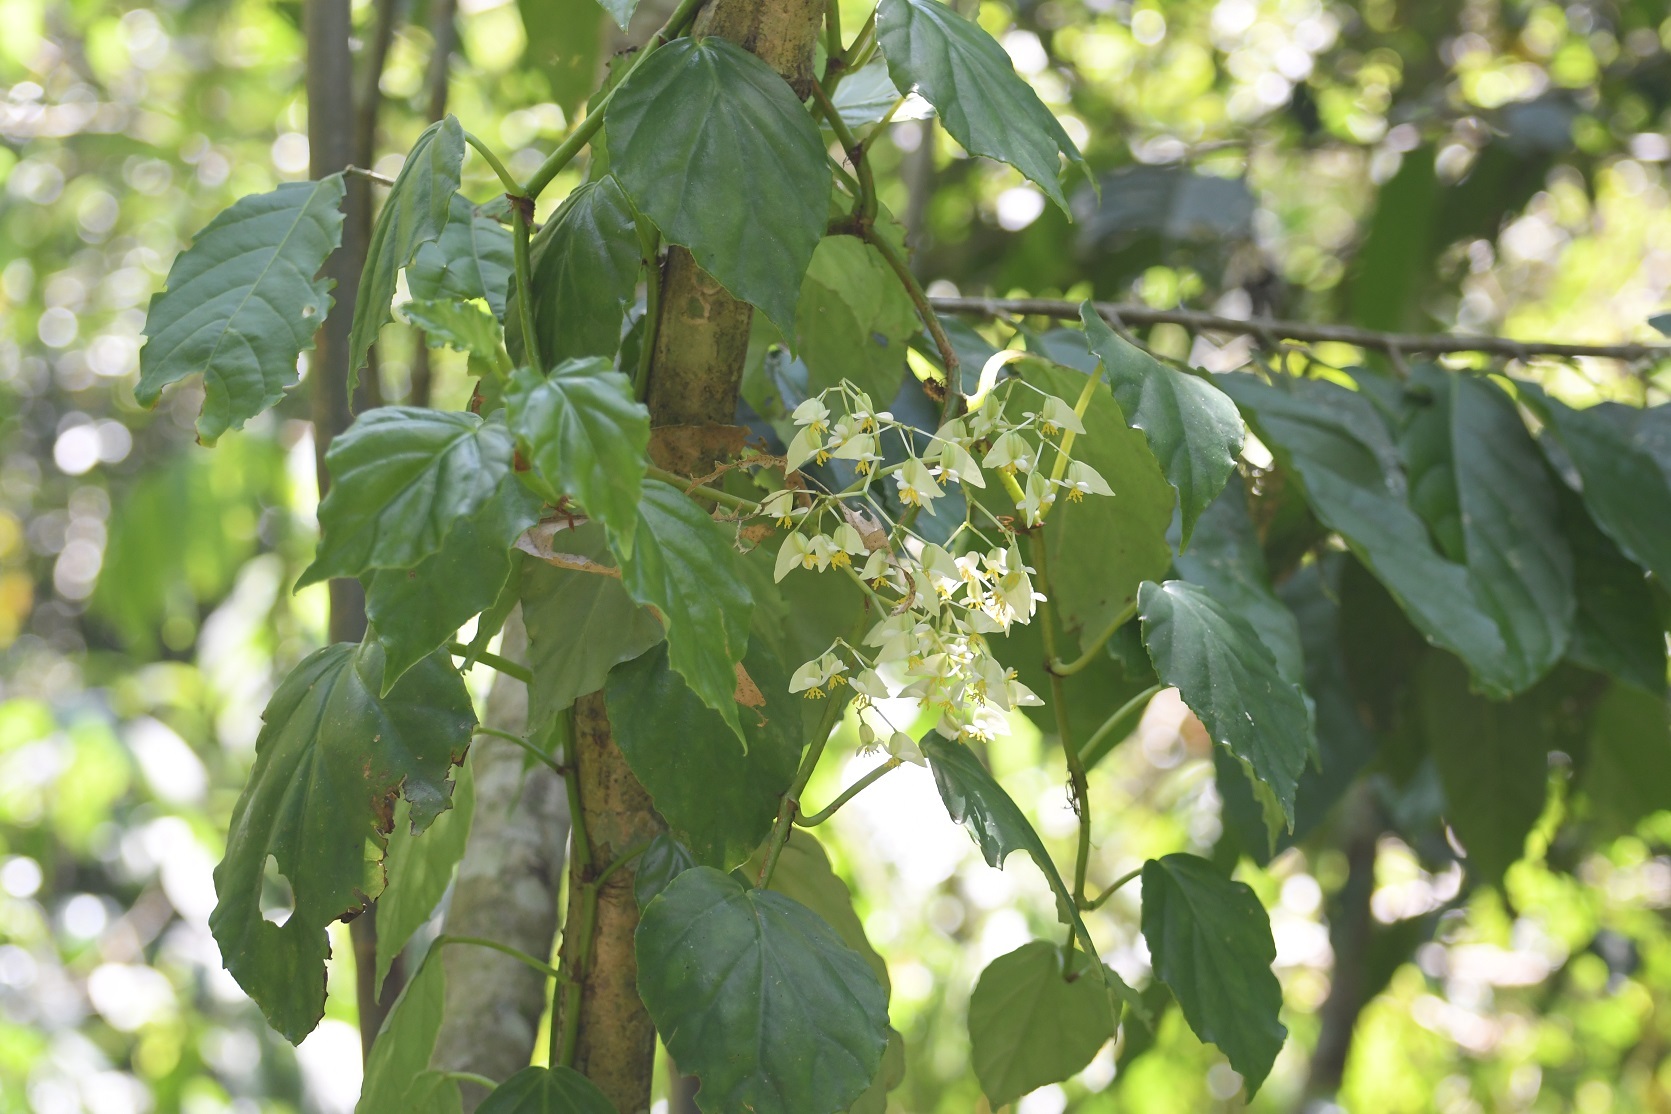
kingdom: Plantae
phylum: Tracheophyta
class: Magnoliopsida
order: Cucurbitales
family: Begoniaceae
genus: Begonia
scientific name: Begonia glabra
